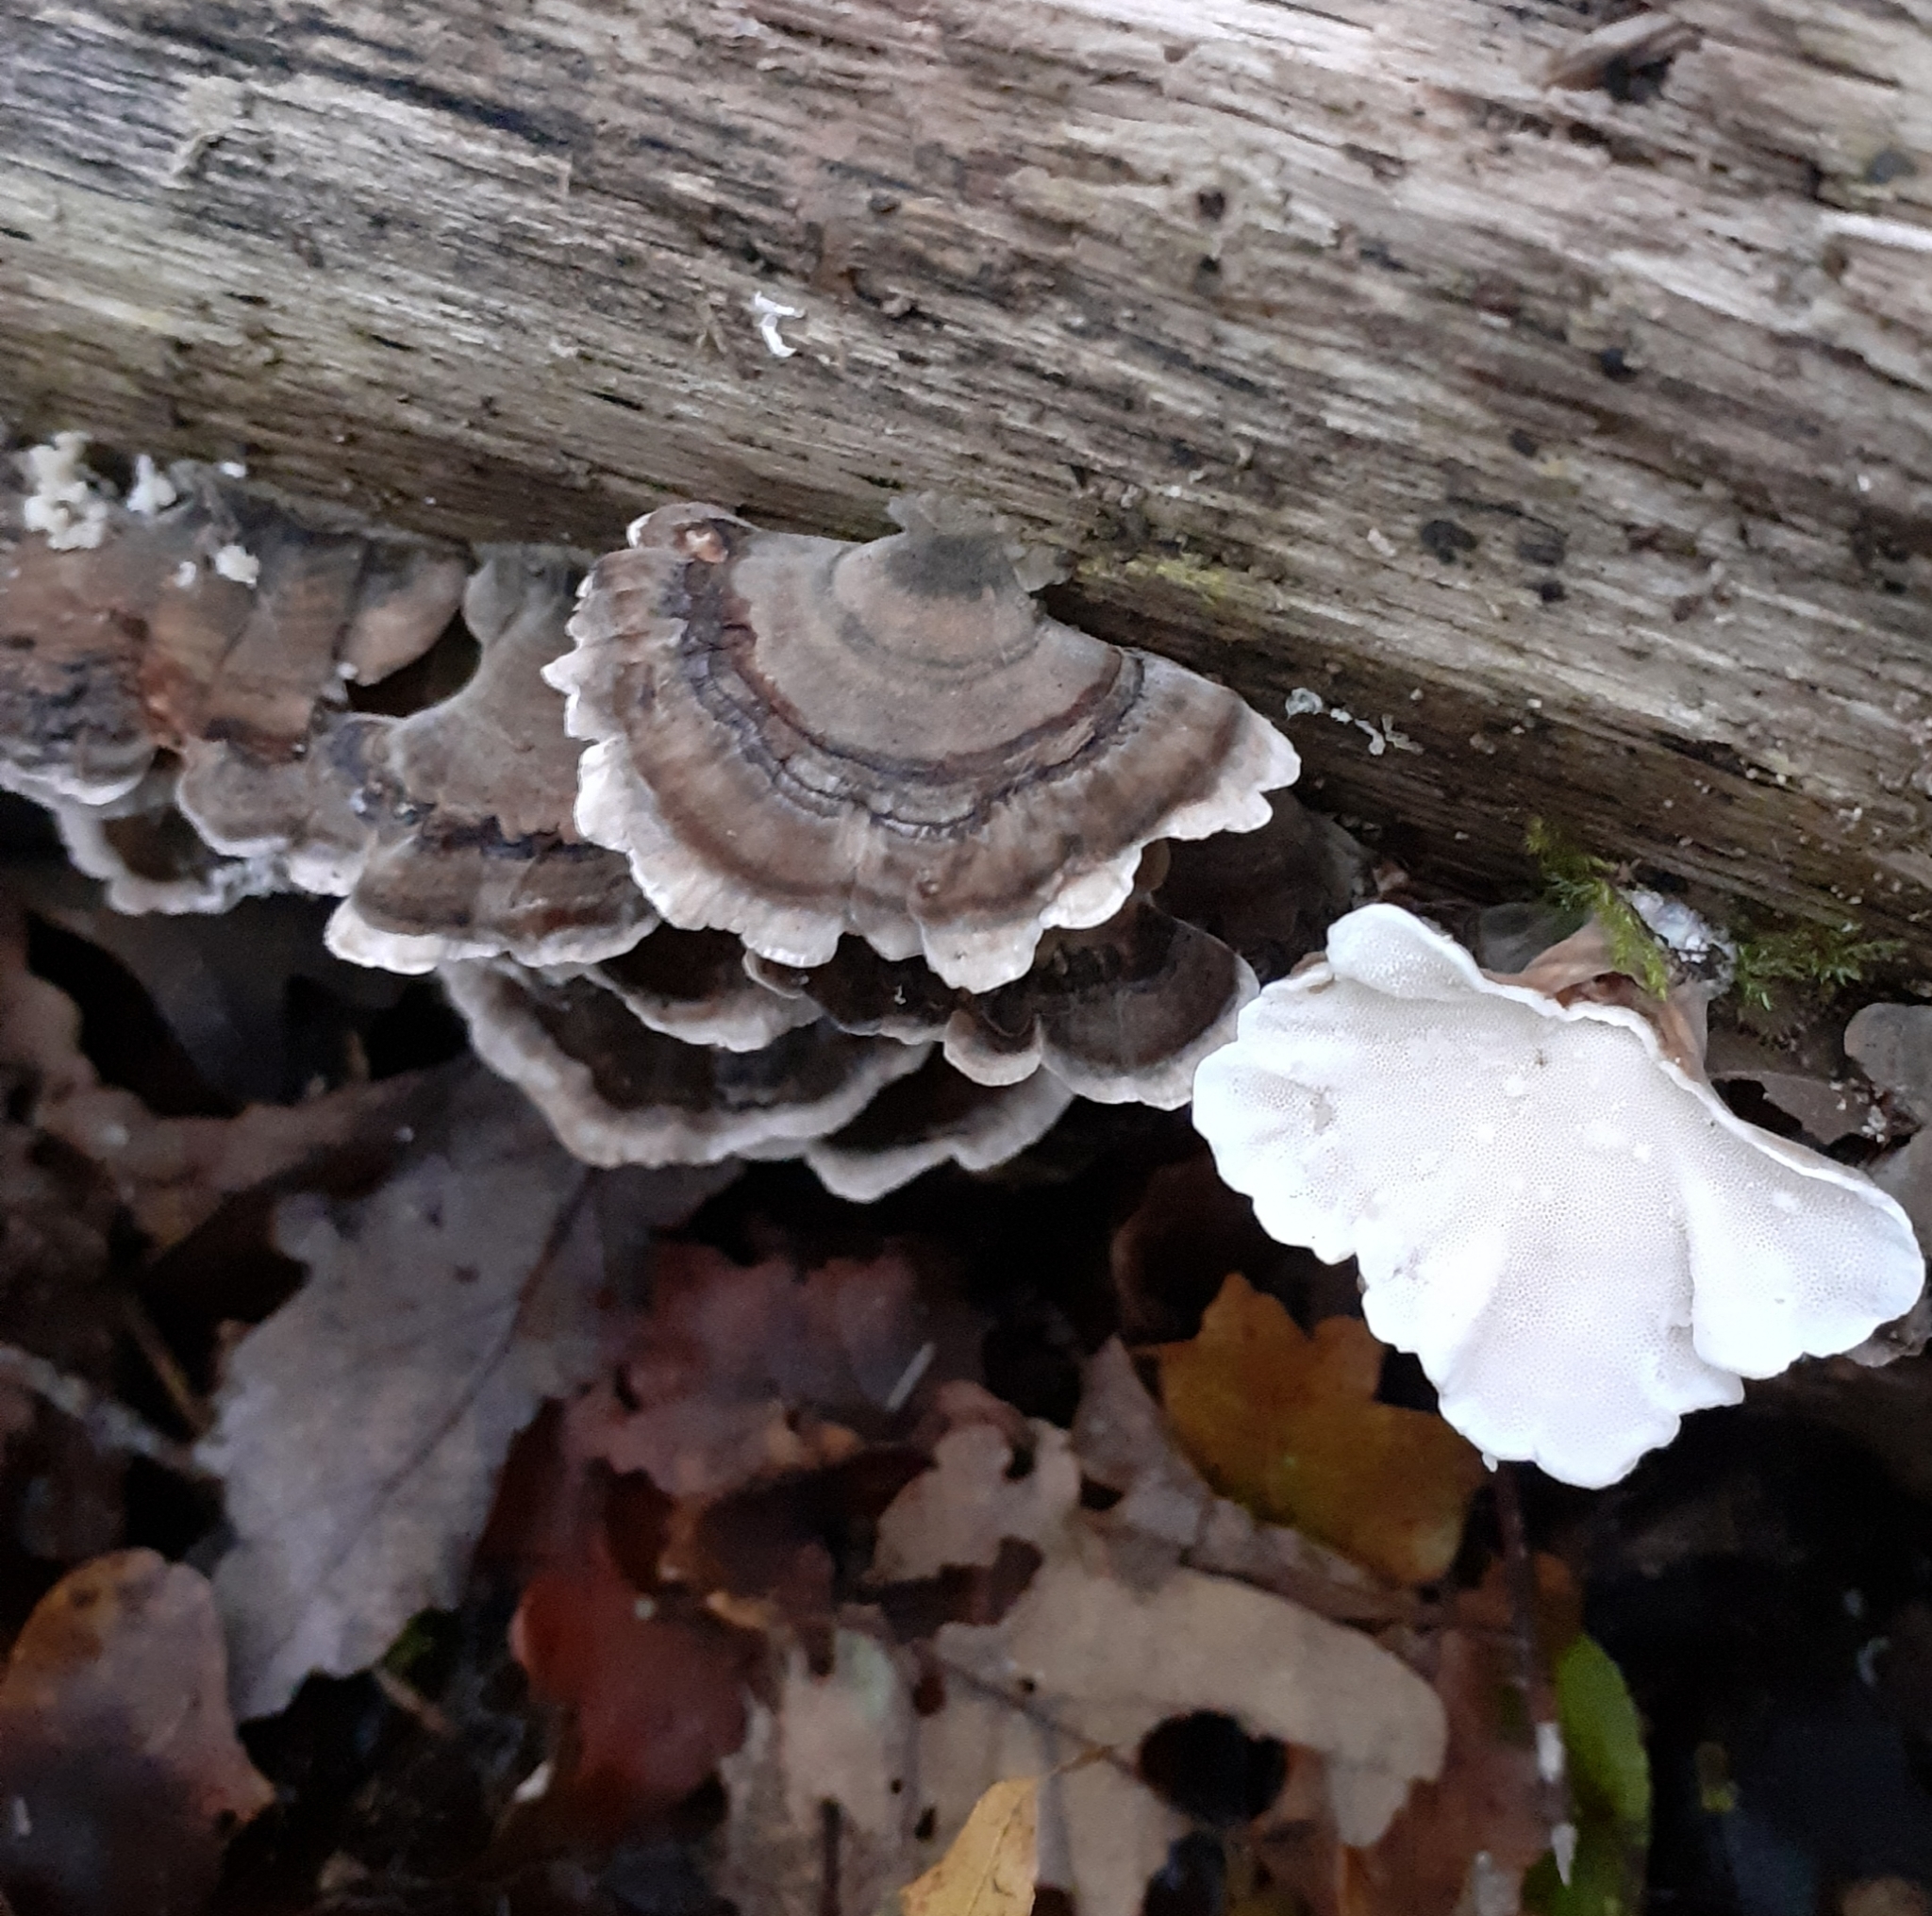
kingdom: Fungi
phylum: Basidiomycota
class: Agaricomycetes
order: Polyporales
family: Polyporaceae
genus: Trametes
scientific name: Trametes versicolor
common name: Turkeytail
